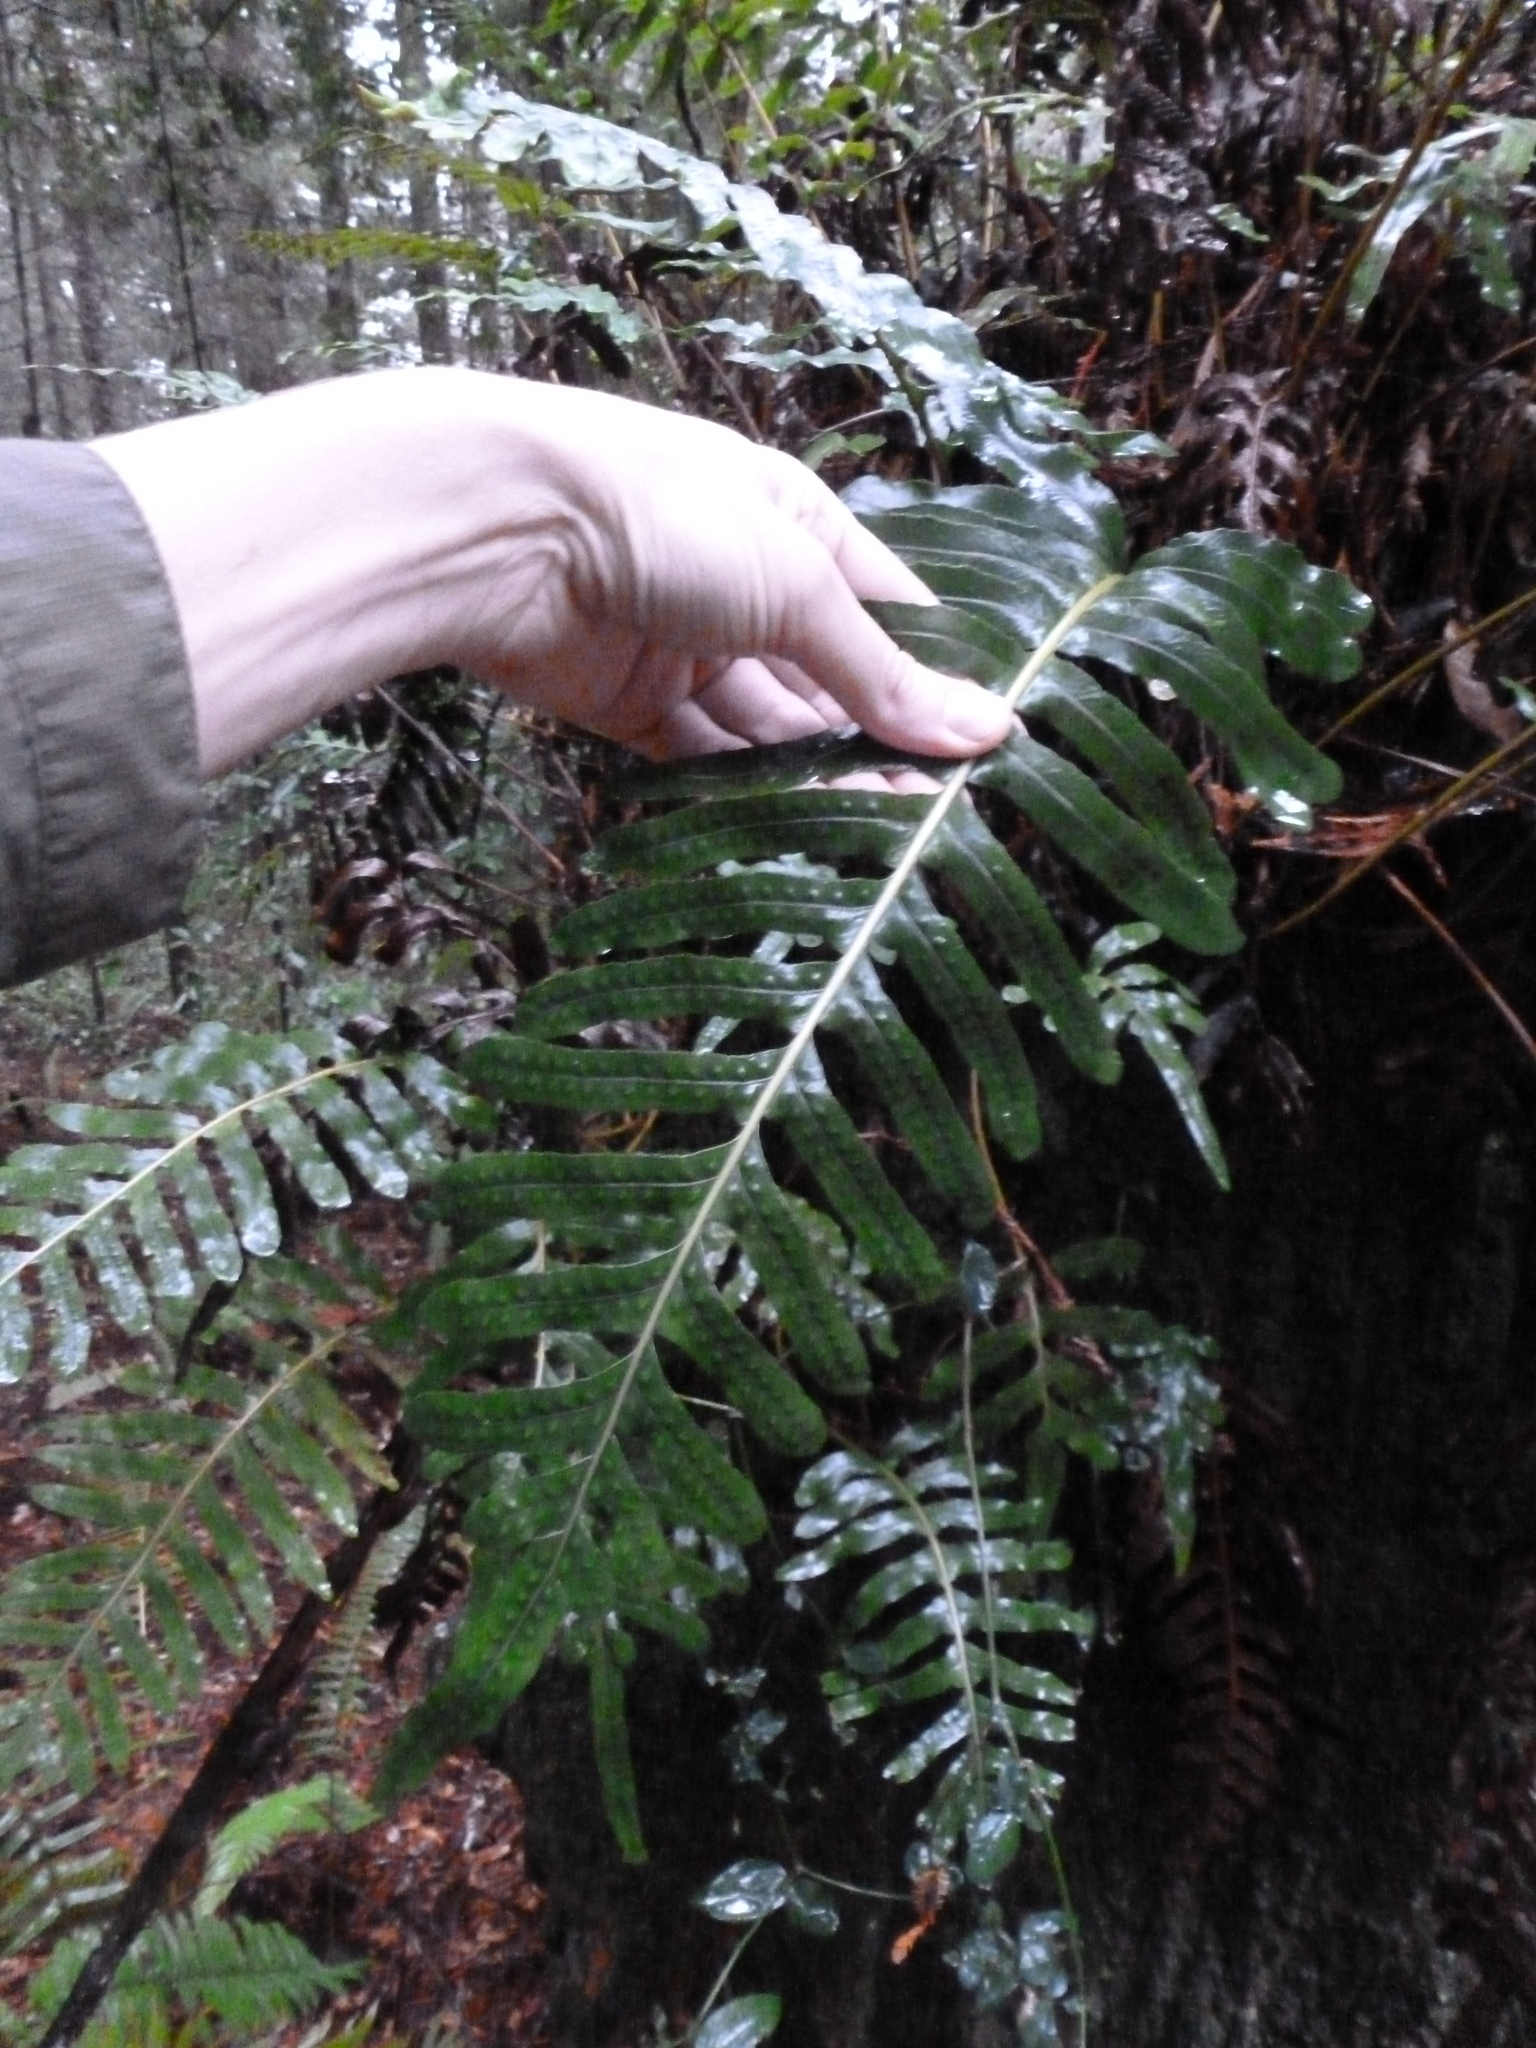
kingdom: Plantae
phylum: Tracheophyta
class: Polypodiopsida
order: Polypodiales
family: Polypodiaceae
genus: Polypodium
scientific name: Polypodium scouleri
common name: Scouler's polypody
